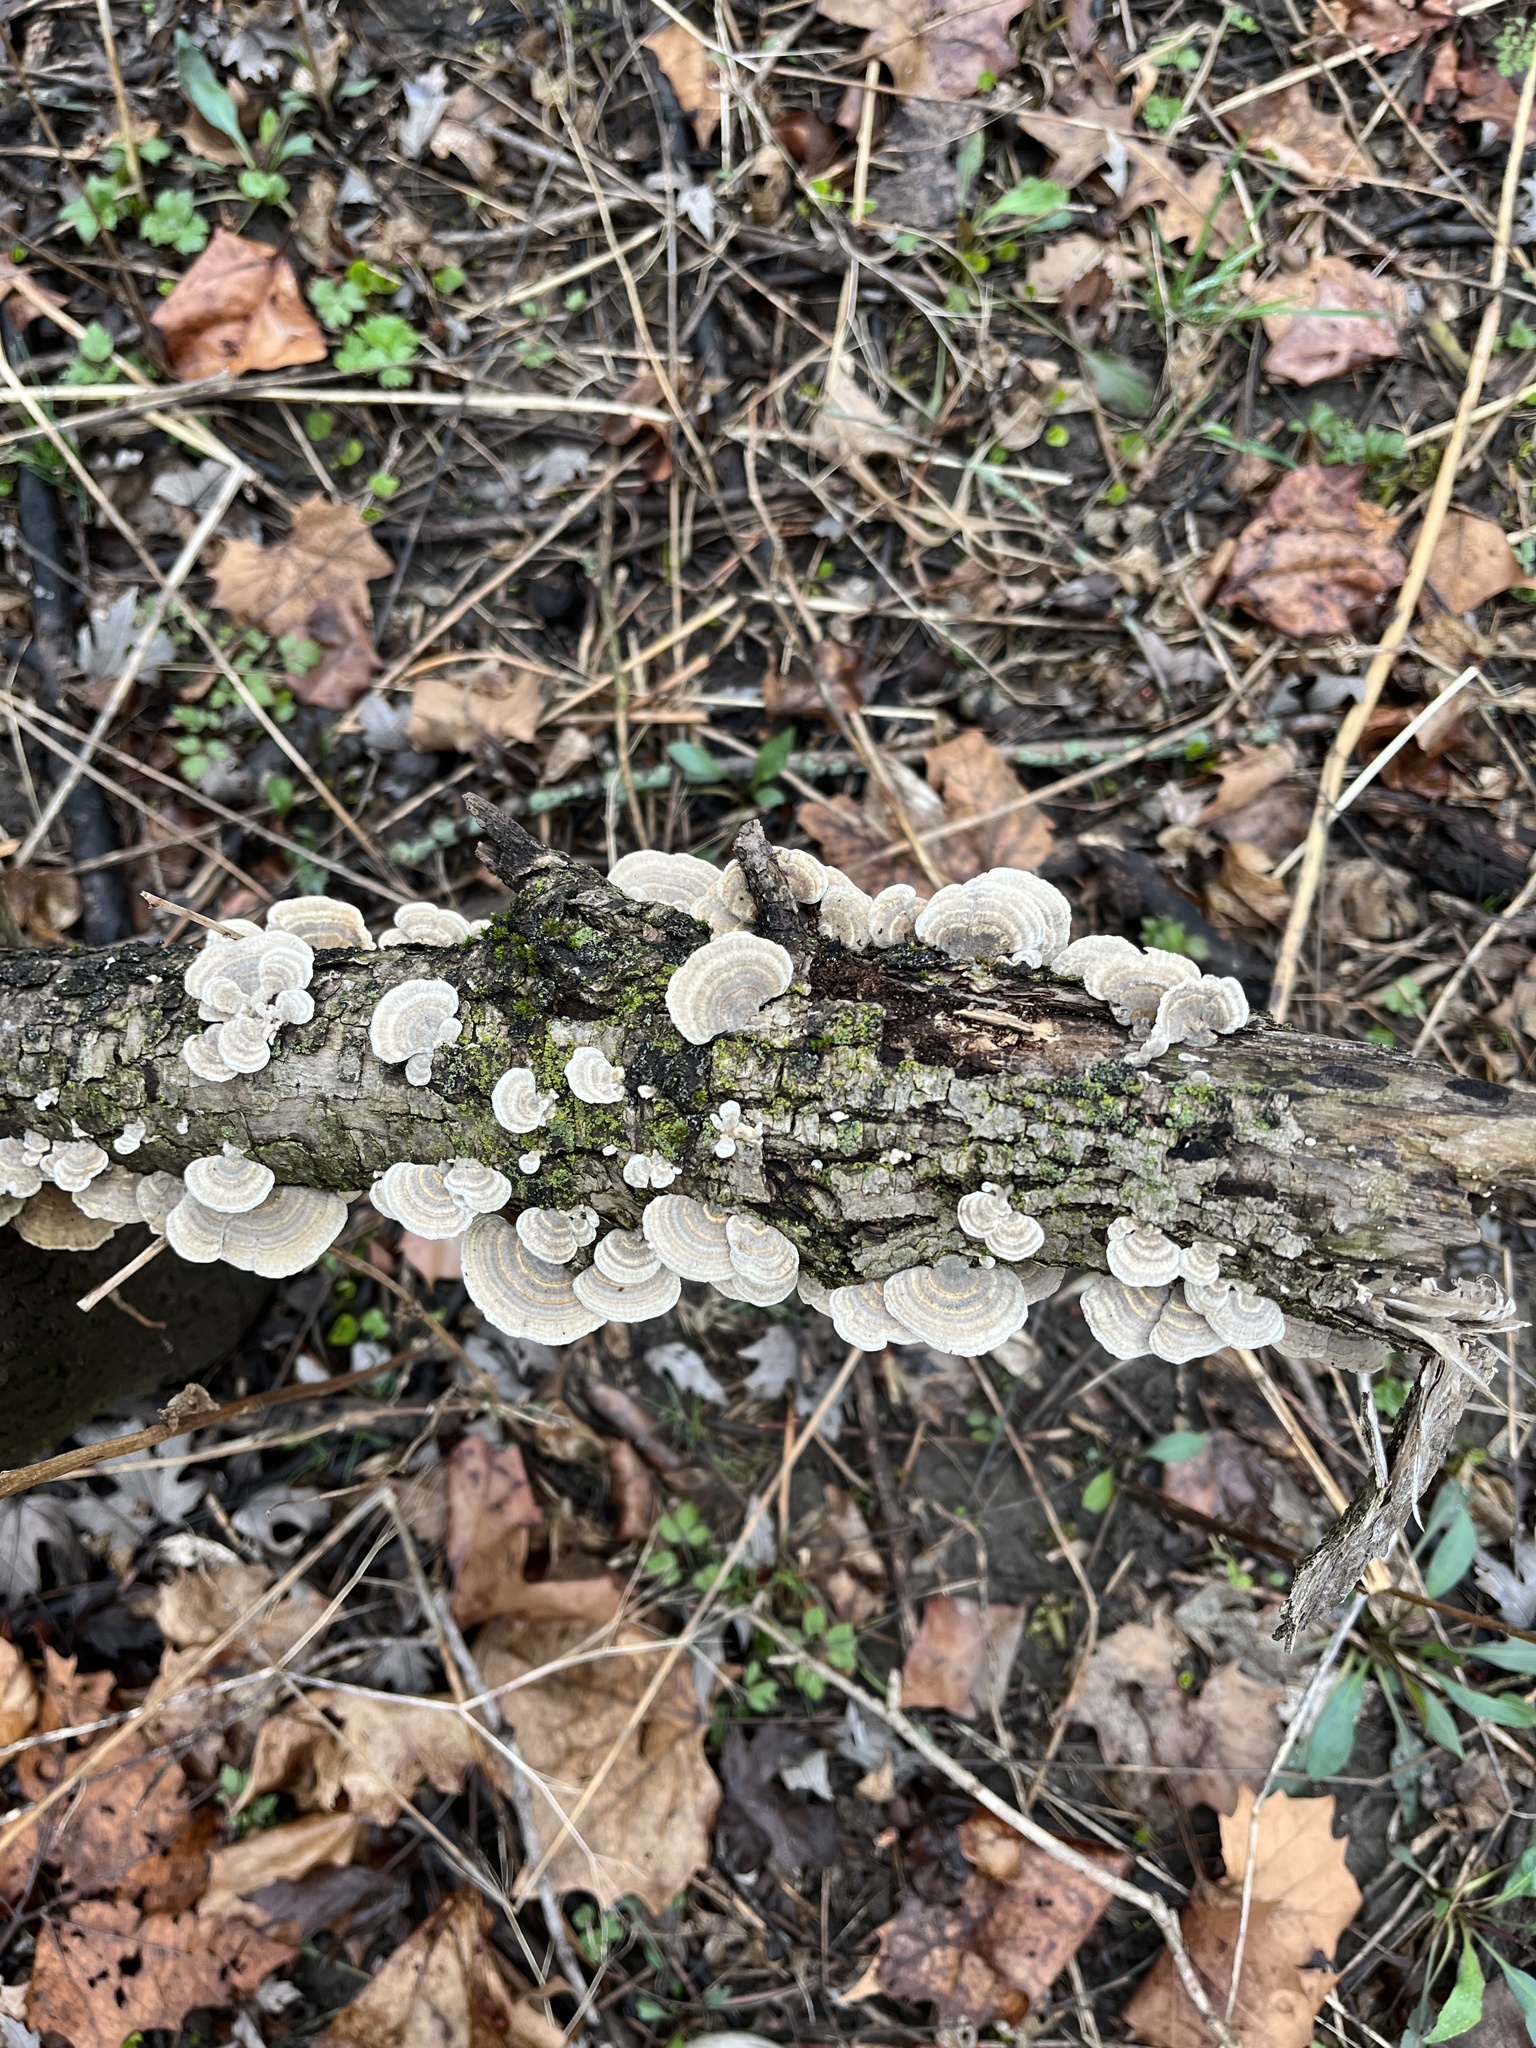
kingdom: Fungi
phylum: Basidiomycota
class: Agaricomycetes
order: Polyporales
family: Polyporaceae
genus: Trametes
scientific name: Trametes versicolor
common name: Turkeytail
